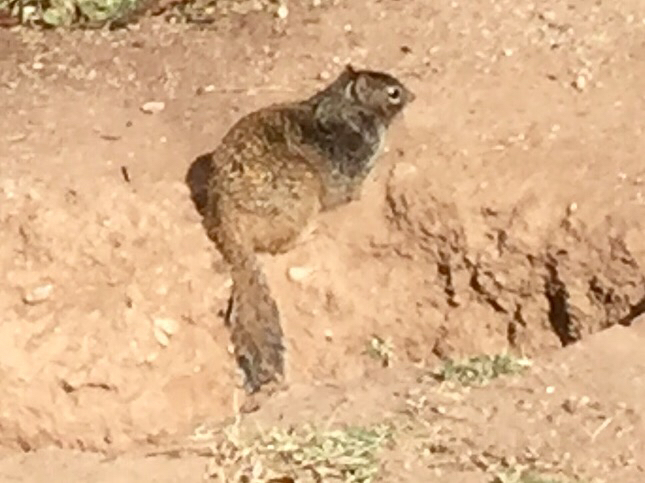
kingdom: Animalia
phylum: Chordata
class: Mammalia
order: Rodentia
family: Sciuridae
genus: Otospermophilus
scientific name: Otospermophilus variegatus
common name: Rock squirrel
